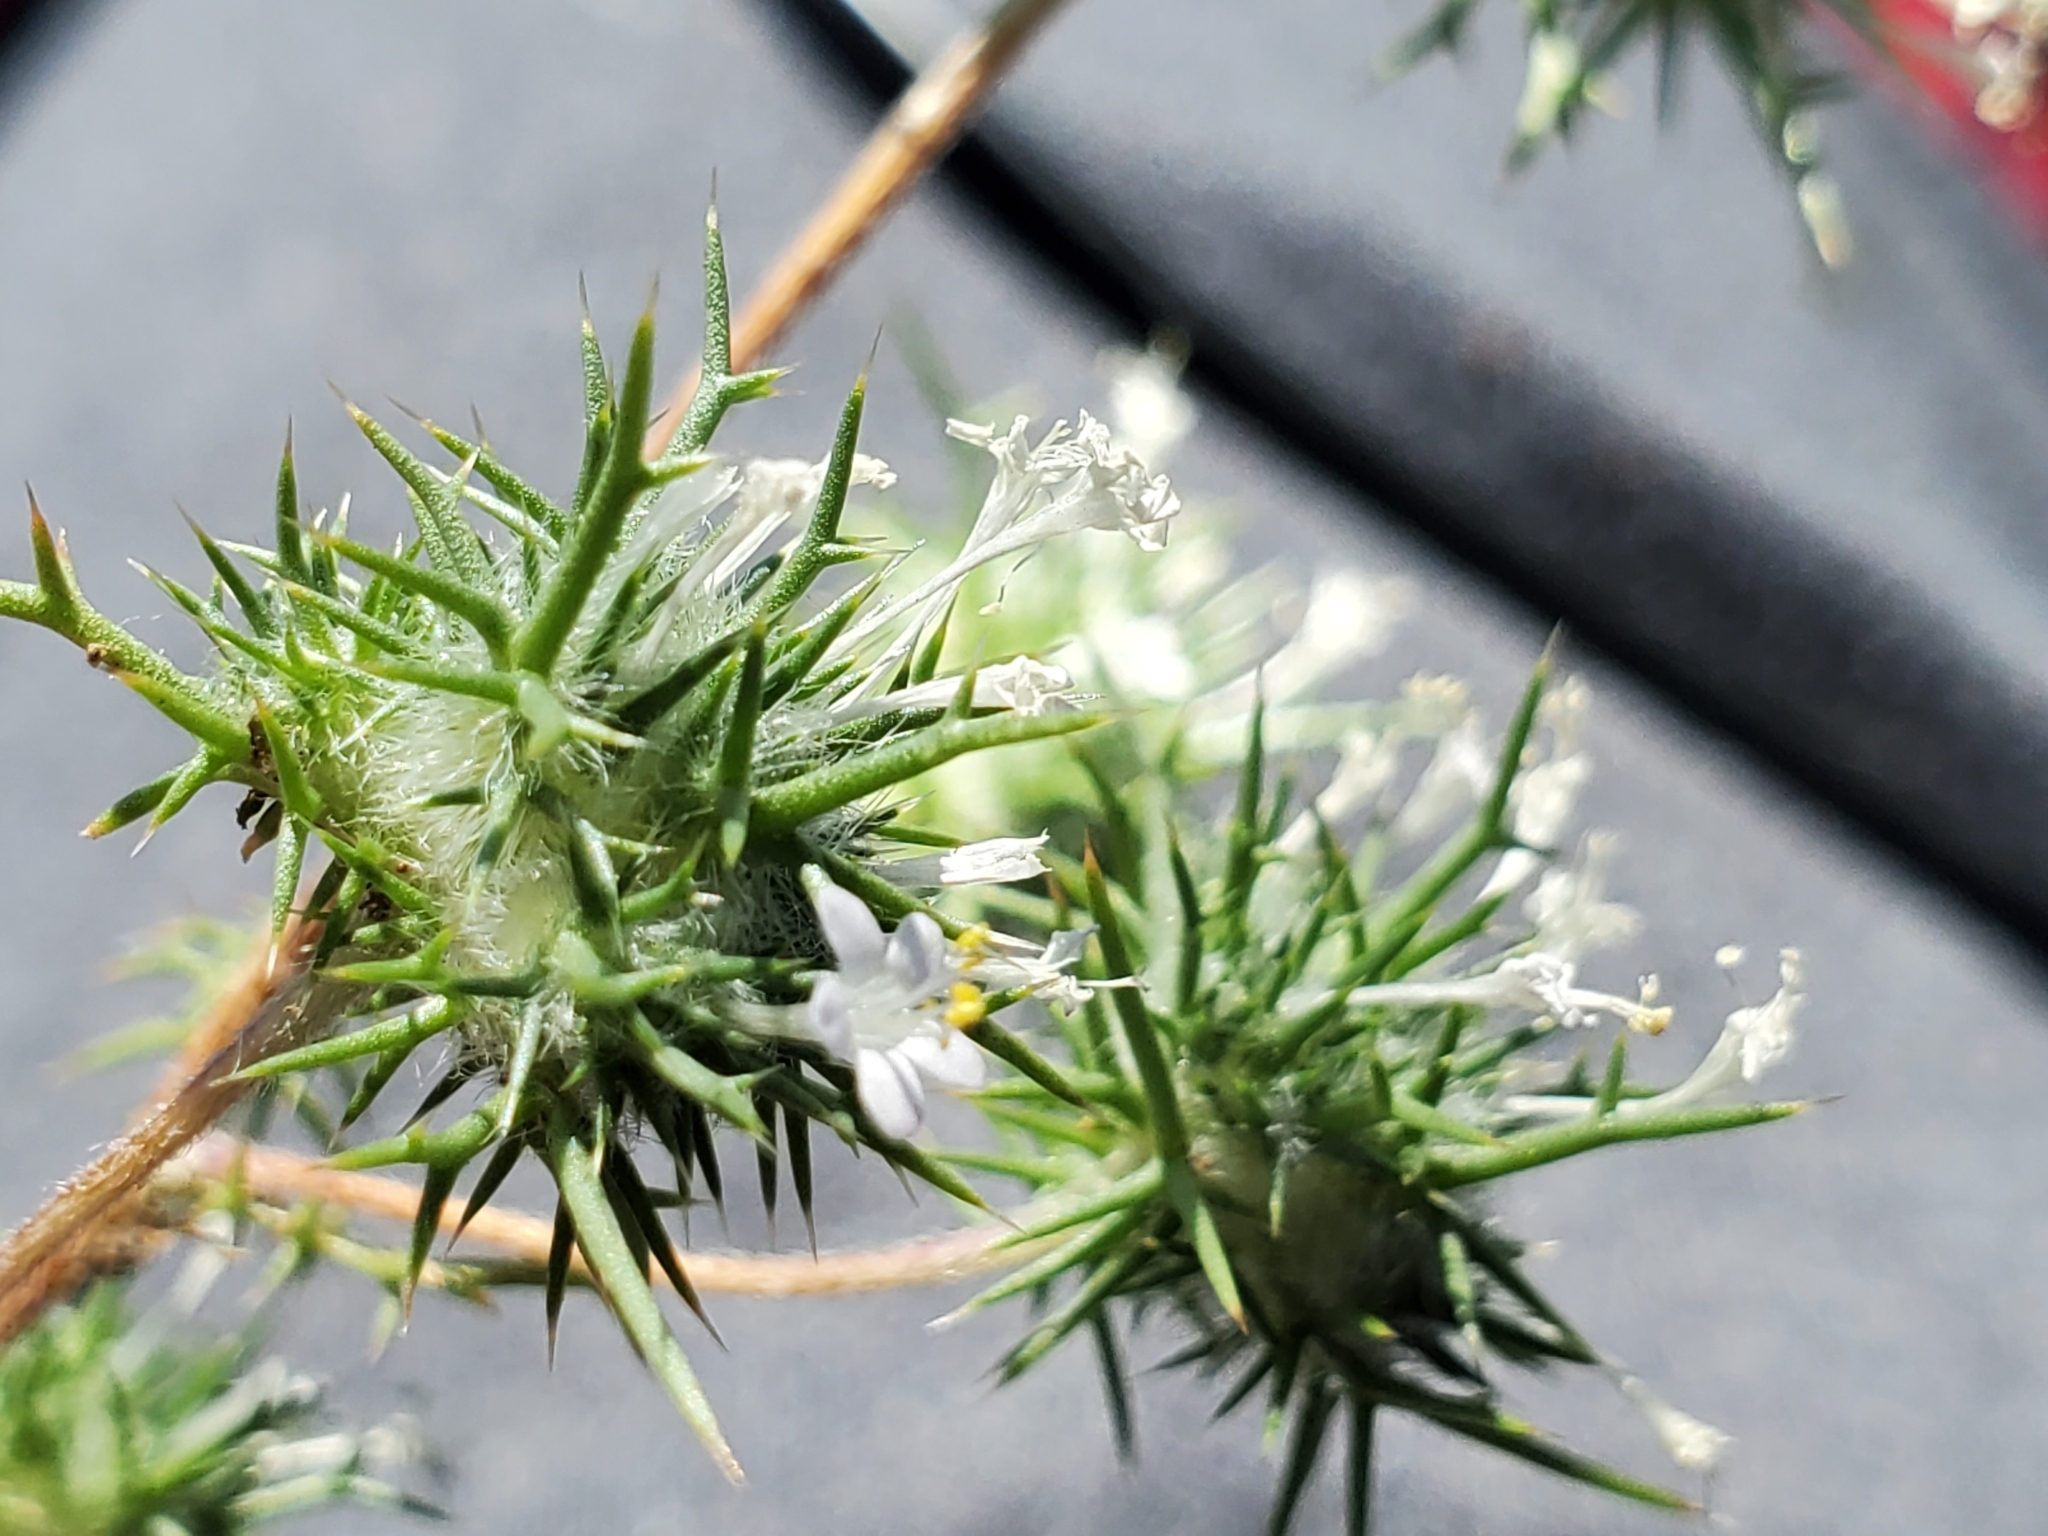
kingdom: Plantae
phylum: Tracheophyta
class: Magnoliopsida
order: Ericales
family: Polemoniaceae
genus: Navarretia
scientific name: Navarretia intertexta
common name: Needle-leaved navarretia
